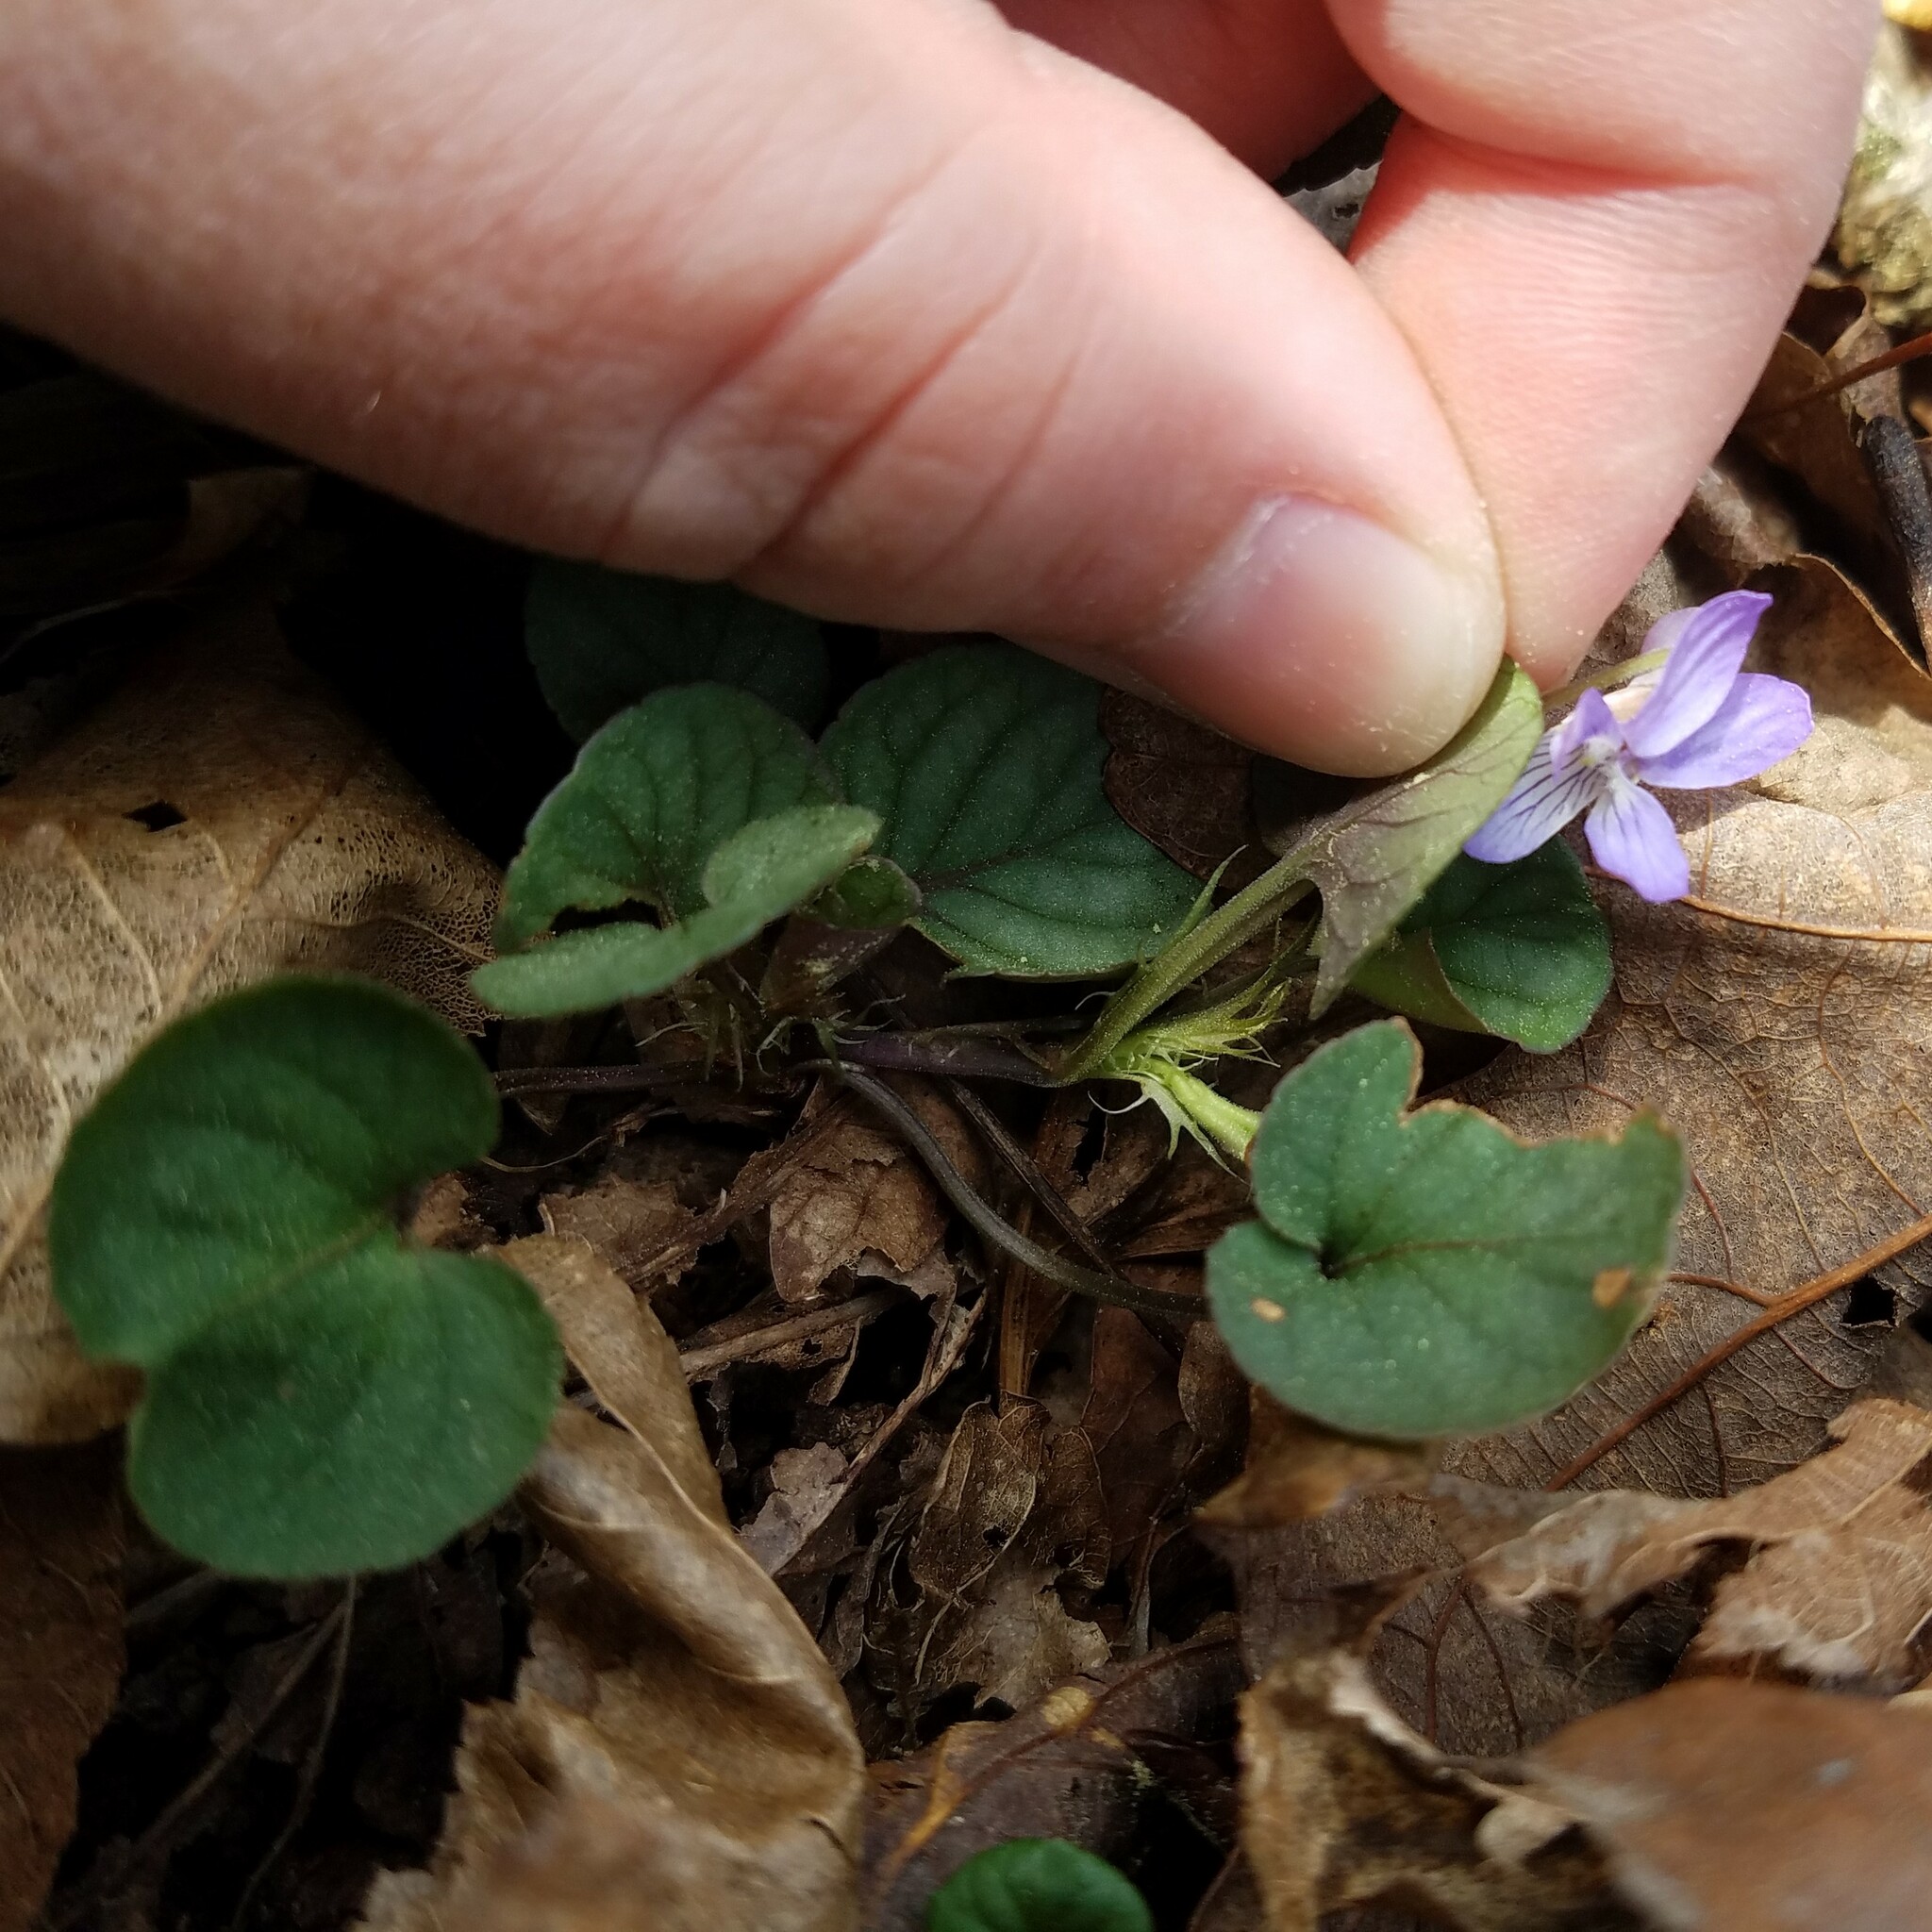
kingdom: Plantae
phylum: Tracheophyta
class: Magnoliopsida
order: Malpighiales
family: Violaceae
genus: Viola
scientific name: Viola walteri
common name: Prostrate southern violet
